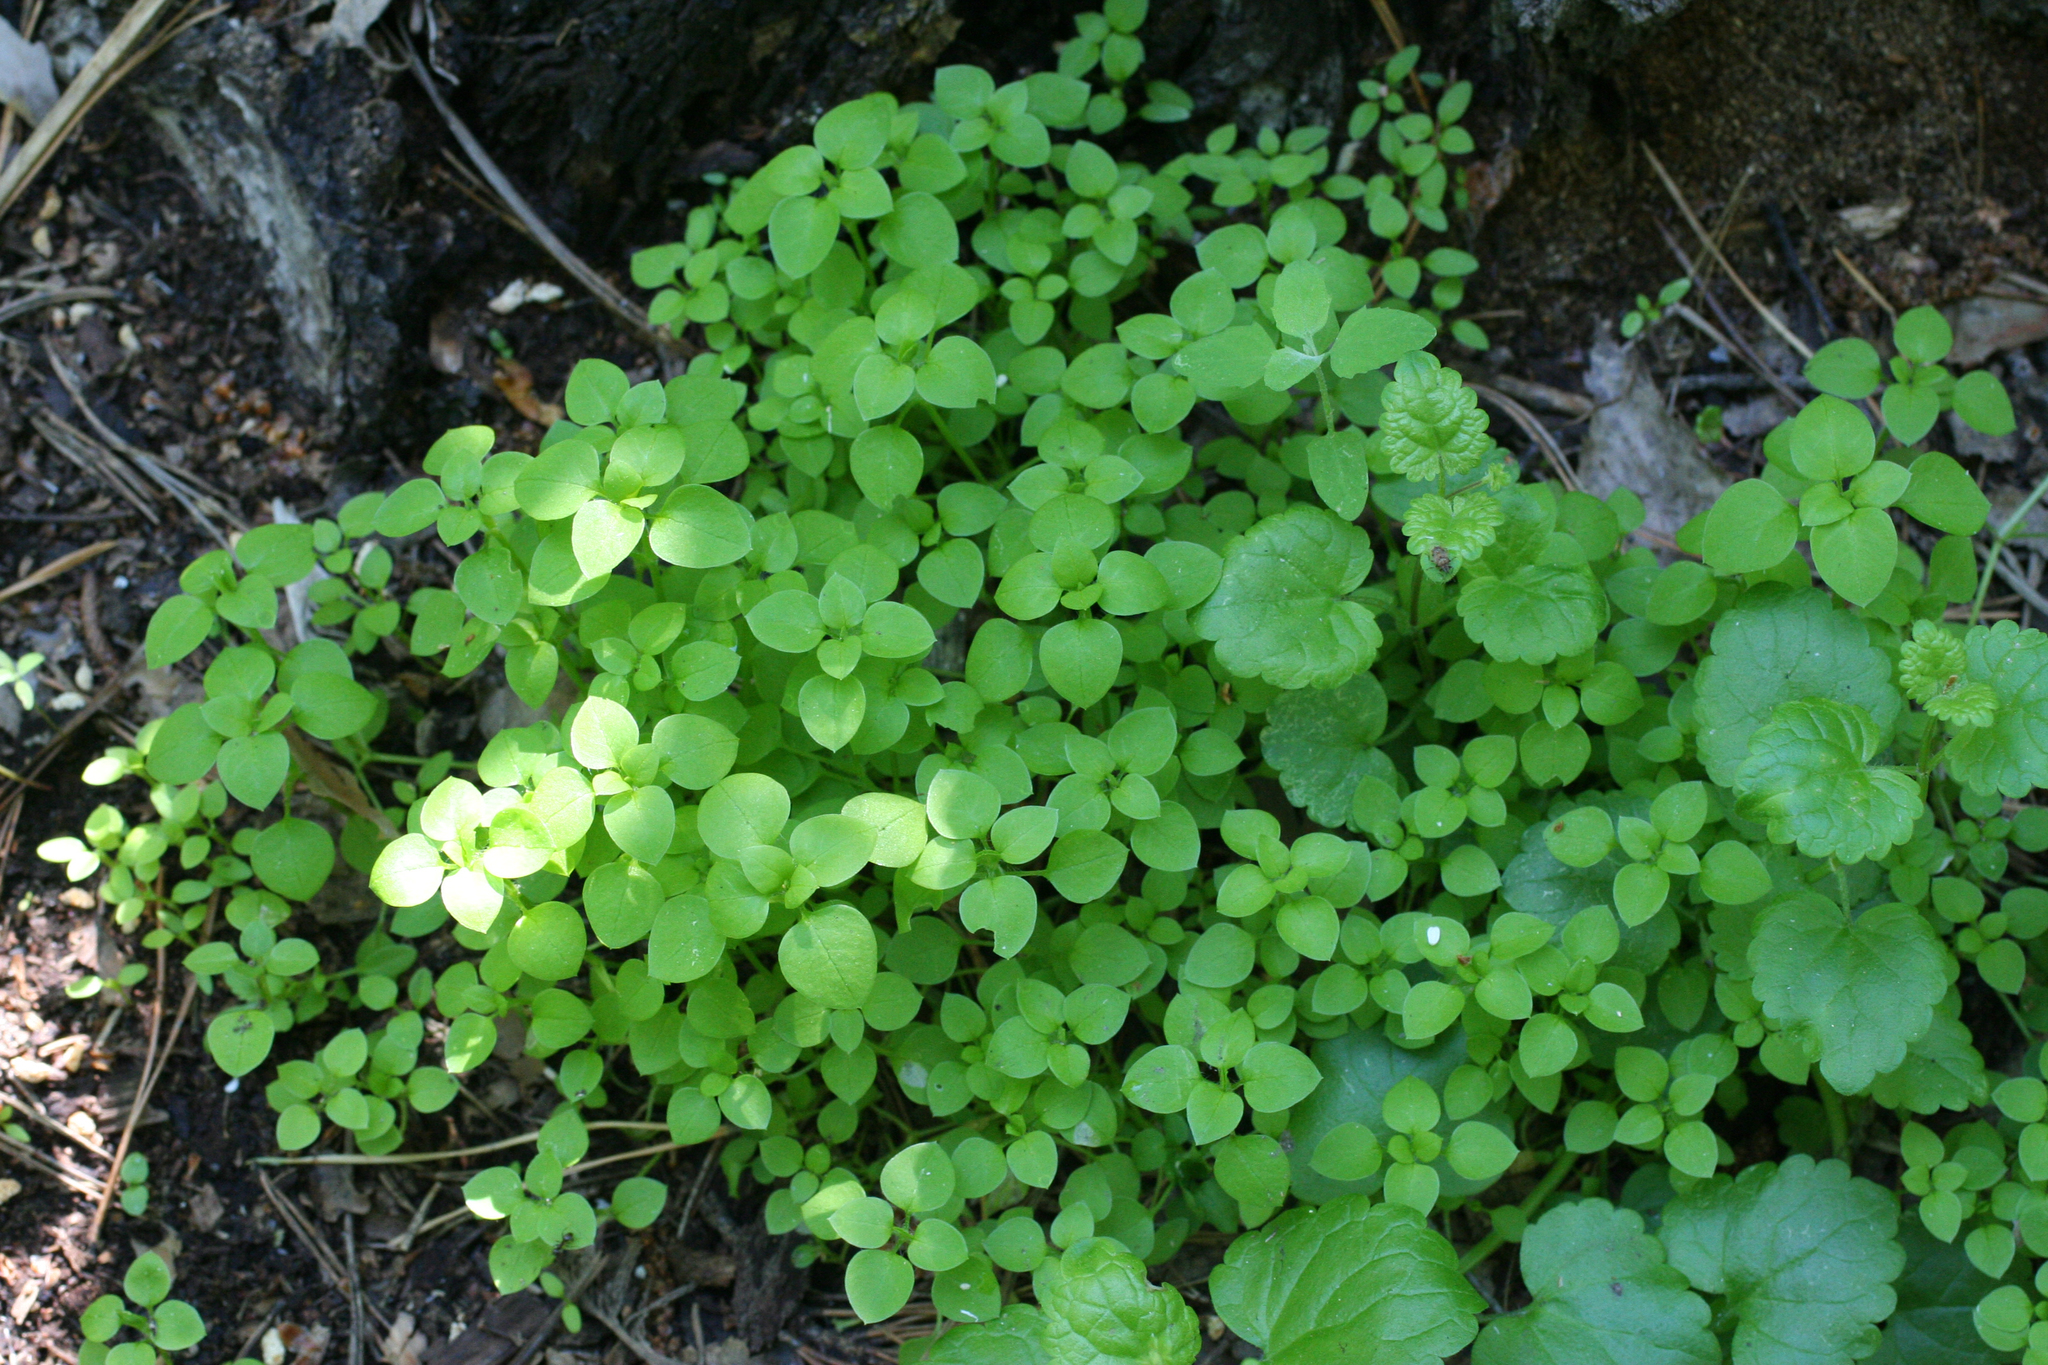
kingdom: Plantae
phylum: Tracheophyta
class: Magnoliopsida
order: Caryophyllales
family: Caryophyllaceae
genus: Stellaria
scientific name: Stellaria media
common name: Common chickweed
